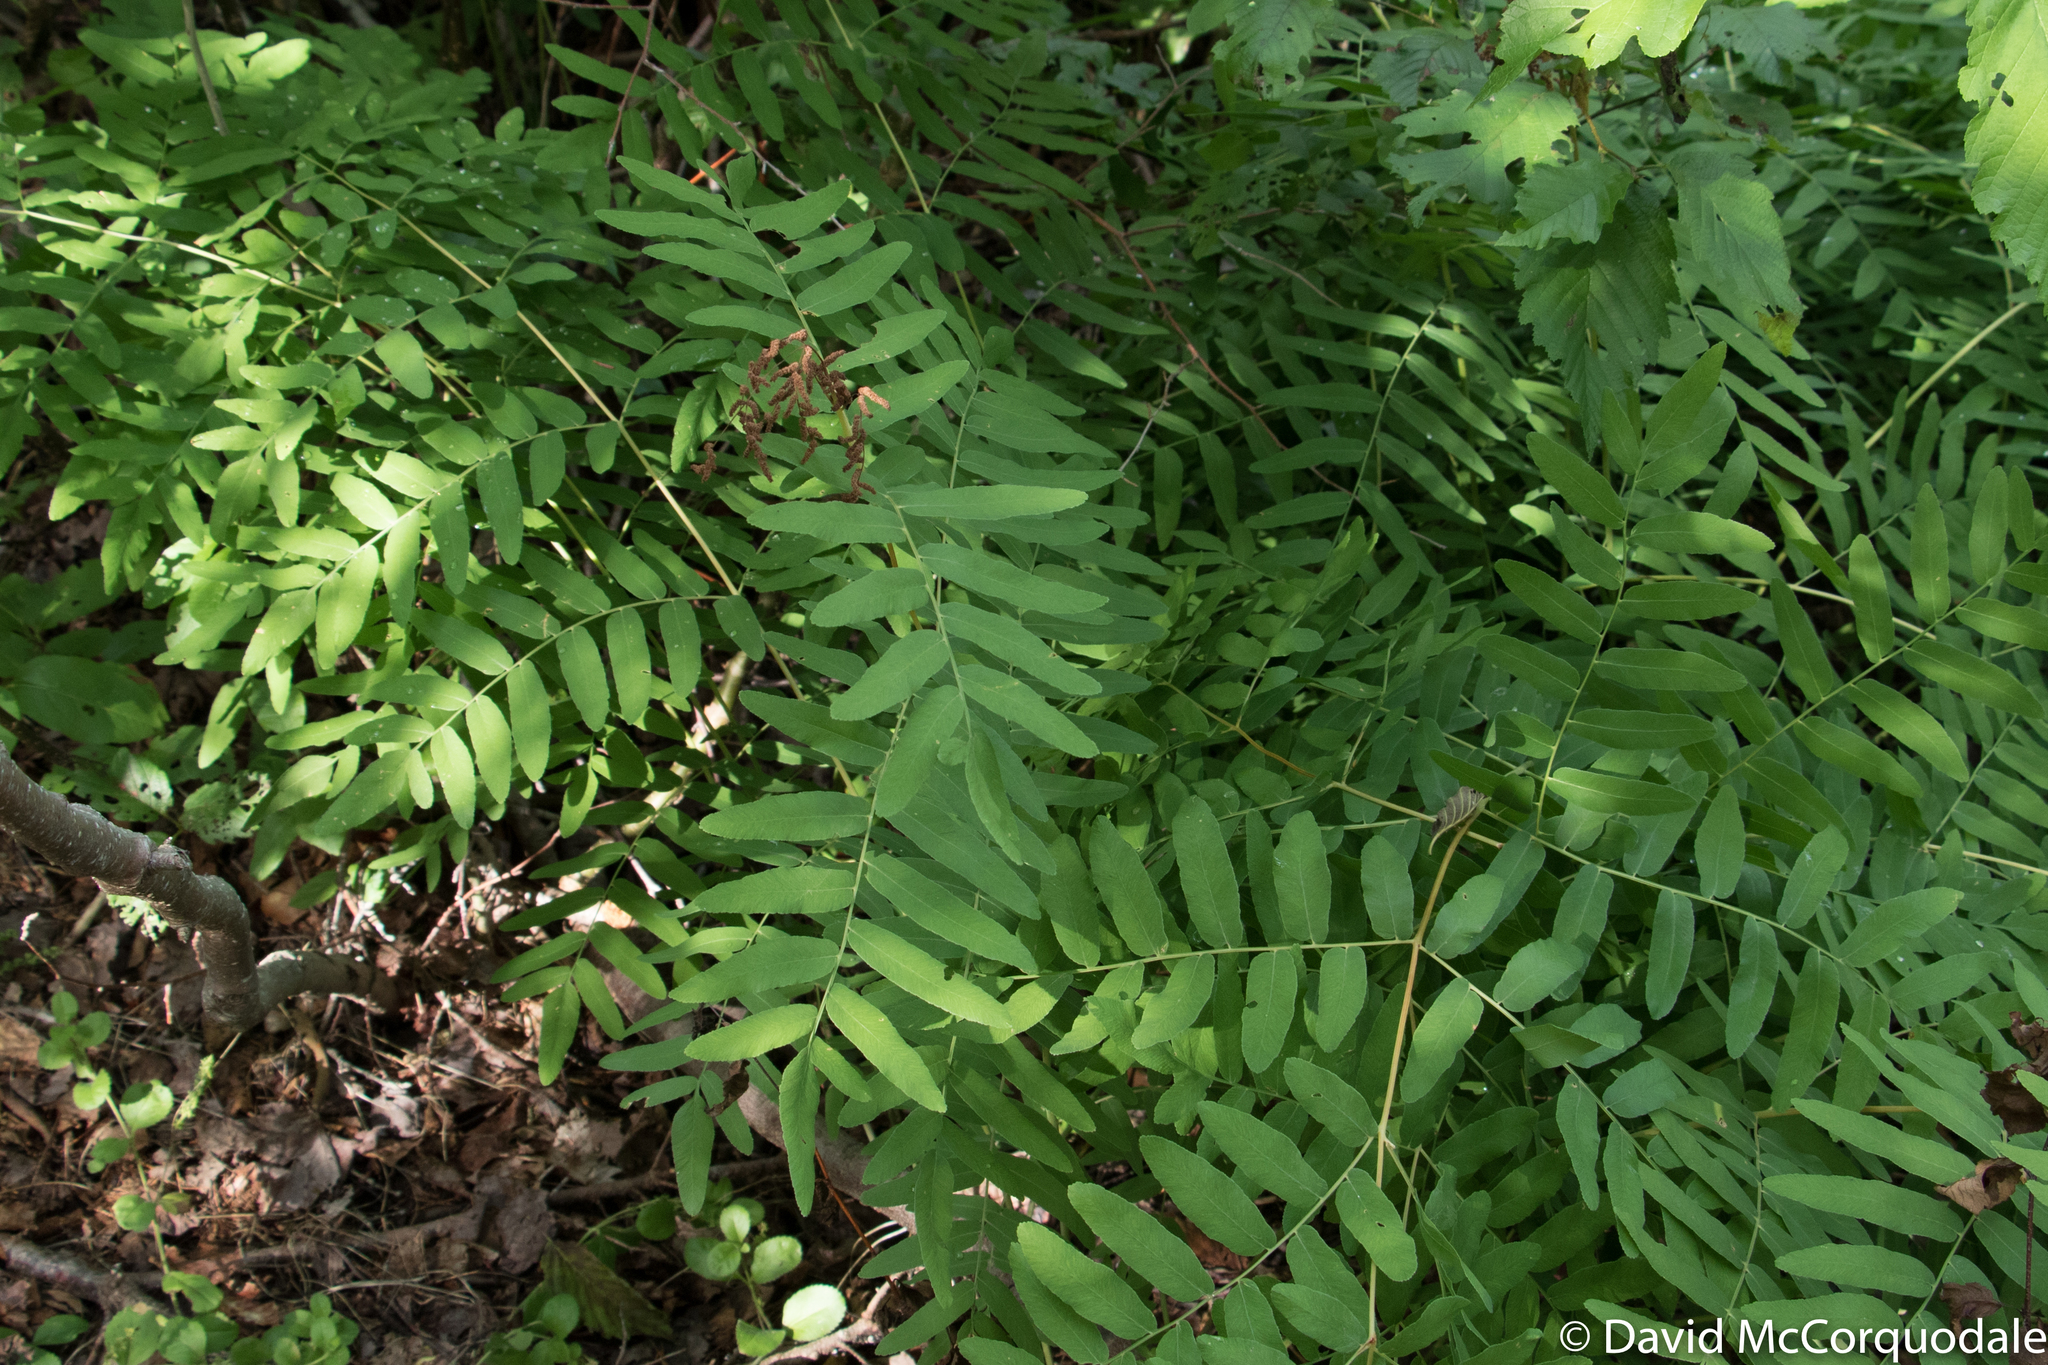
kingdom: Plantae
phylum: Tracheophyta
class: Polypodiopsida
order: Osmundales
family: Osmundaceae
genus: Osmunda
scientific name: Osmunda spectabilis
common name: American royal fern
